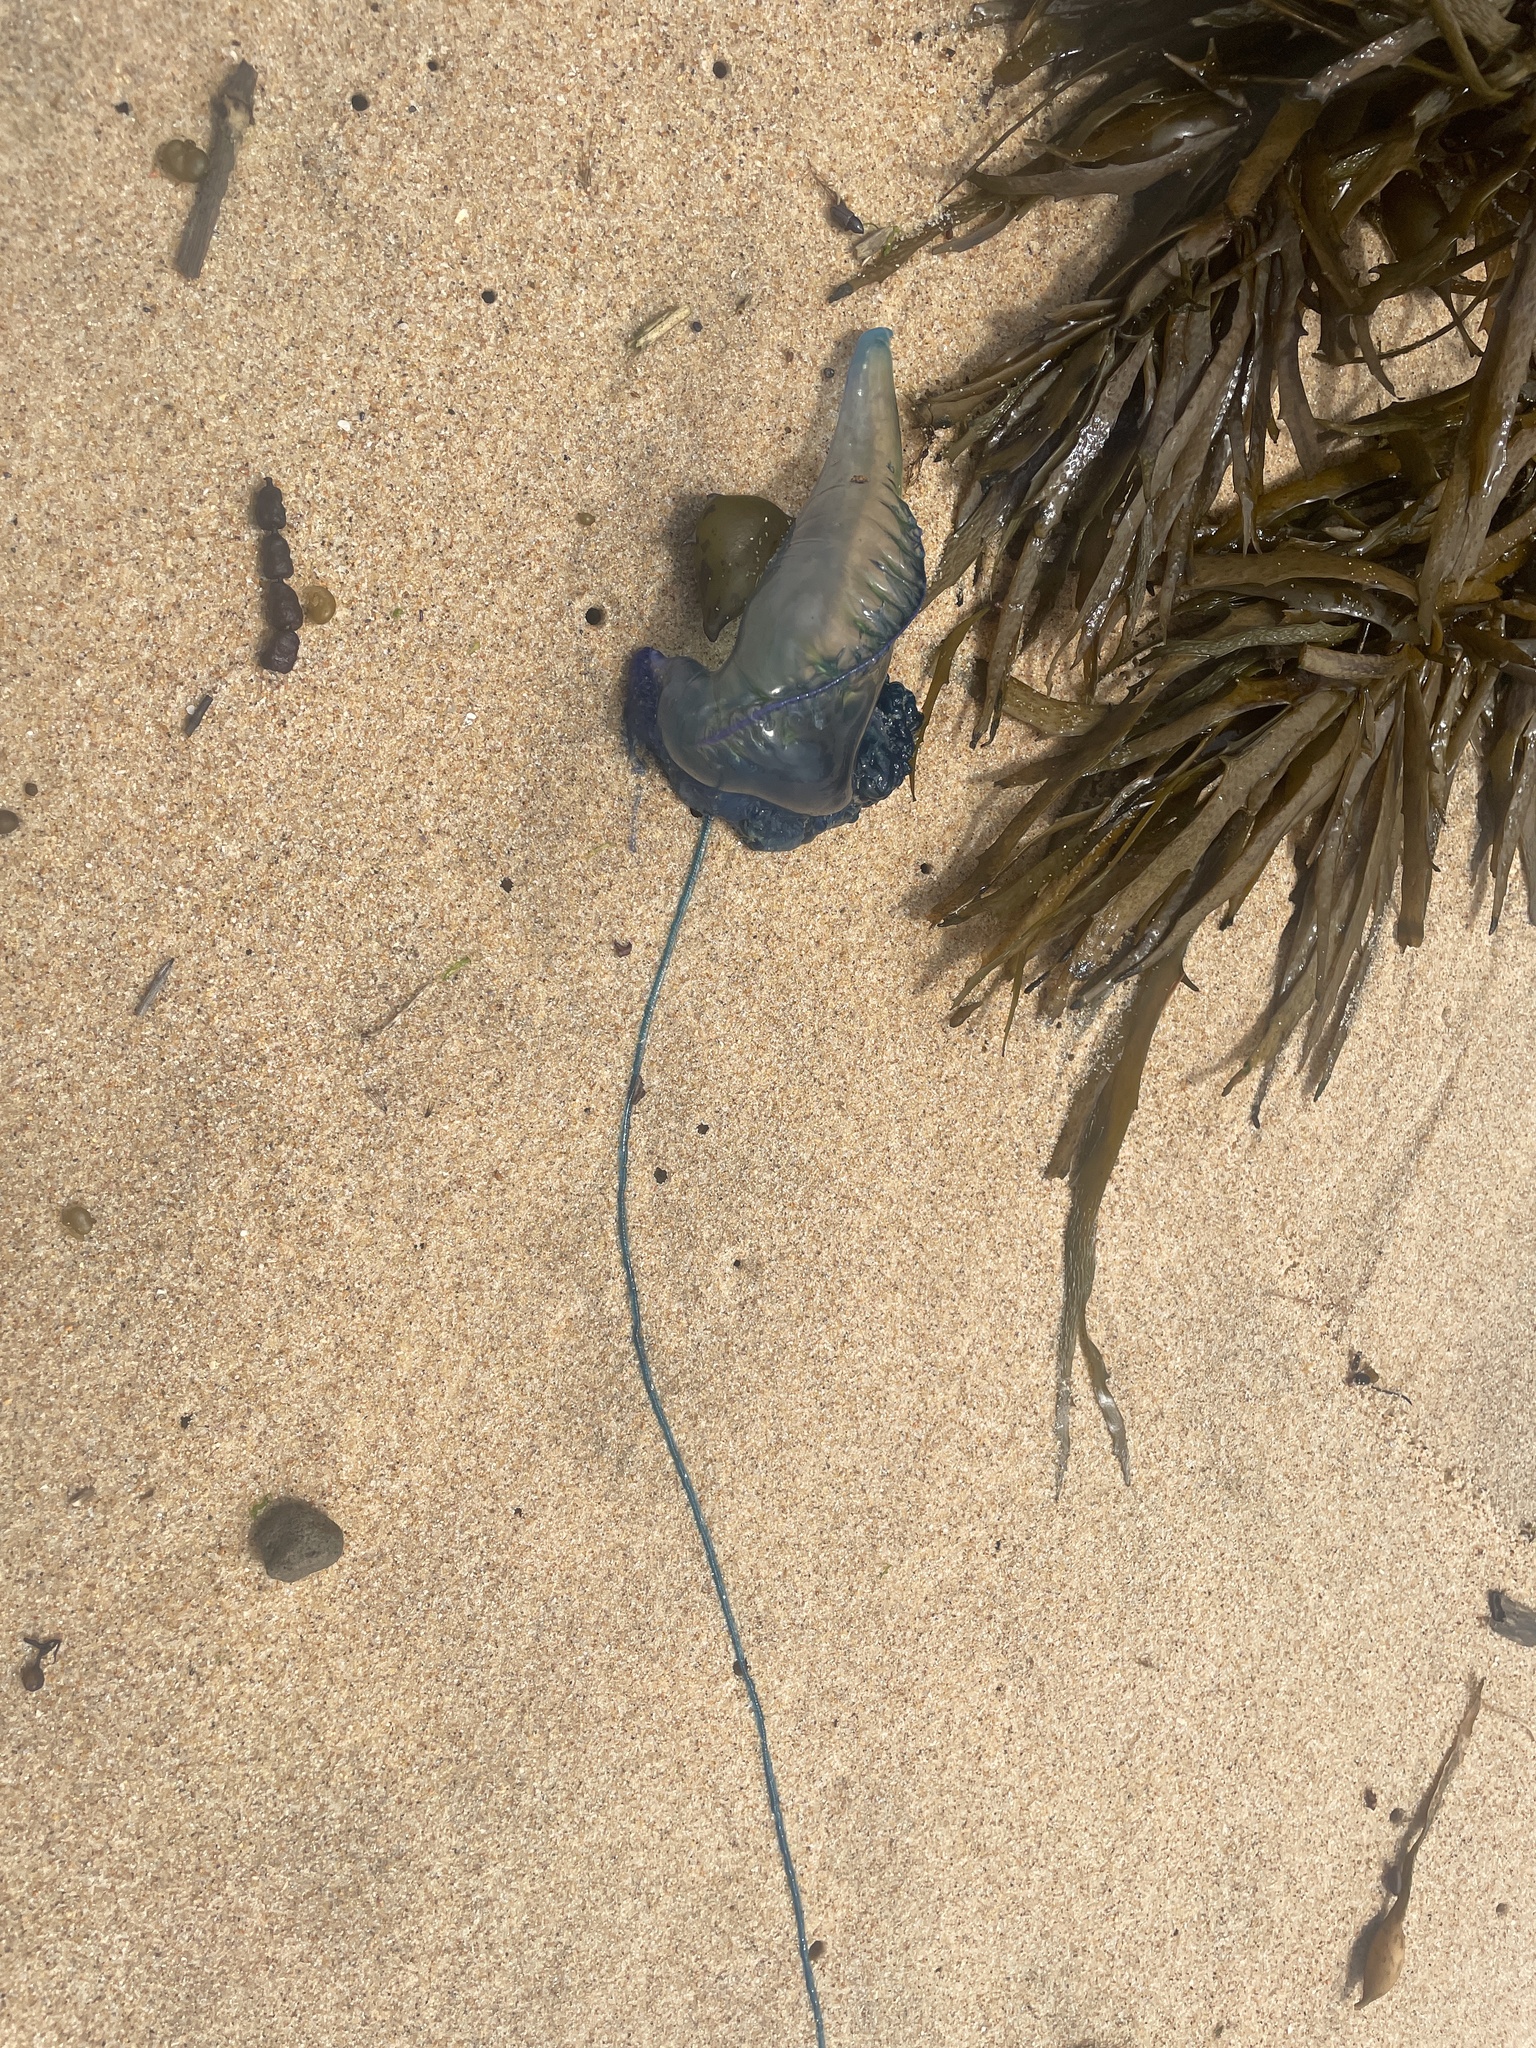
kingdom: Animalia
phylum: Cnidaria
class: Hydrozoa
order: Siphonophorae
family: Physaliidae
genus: Physalia
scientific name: Physalia physalis
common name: Portuguese man-of-war
